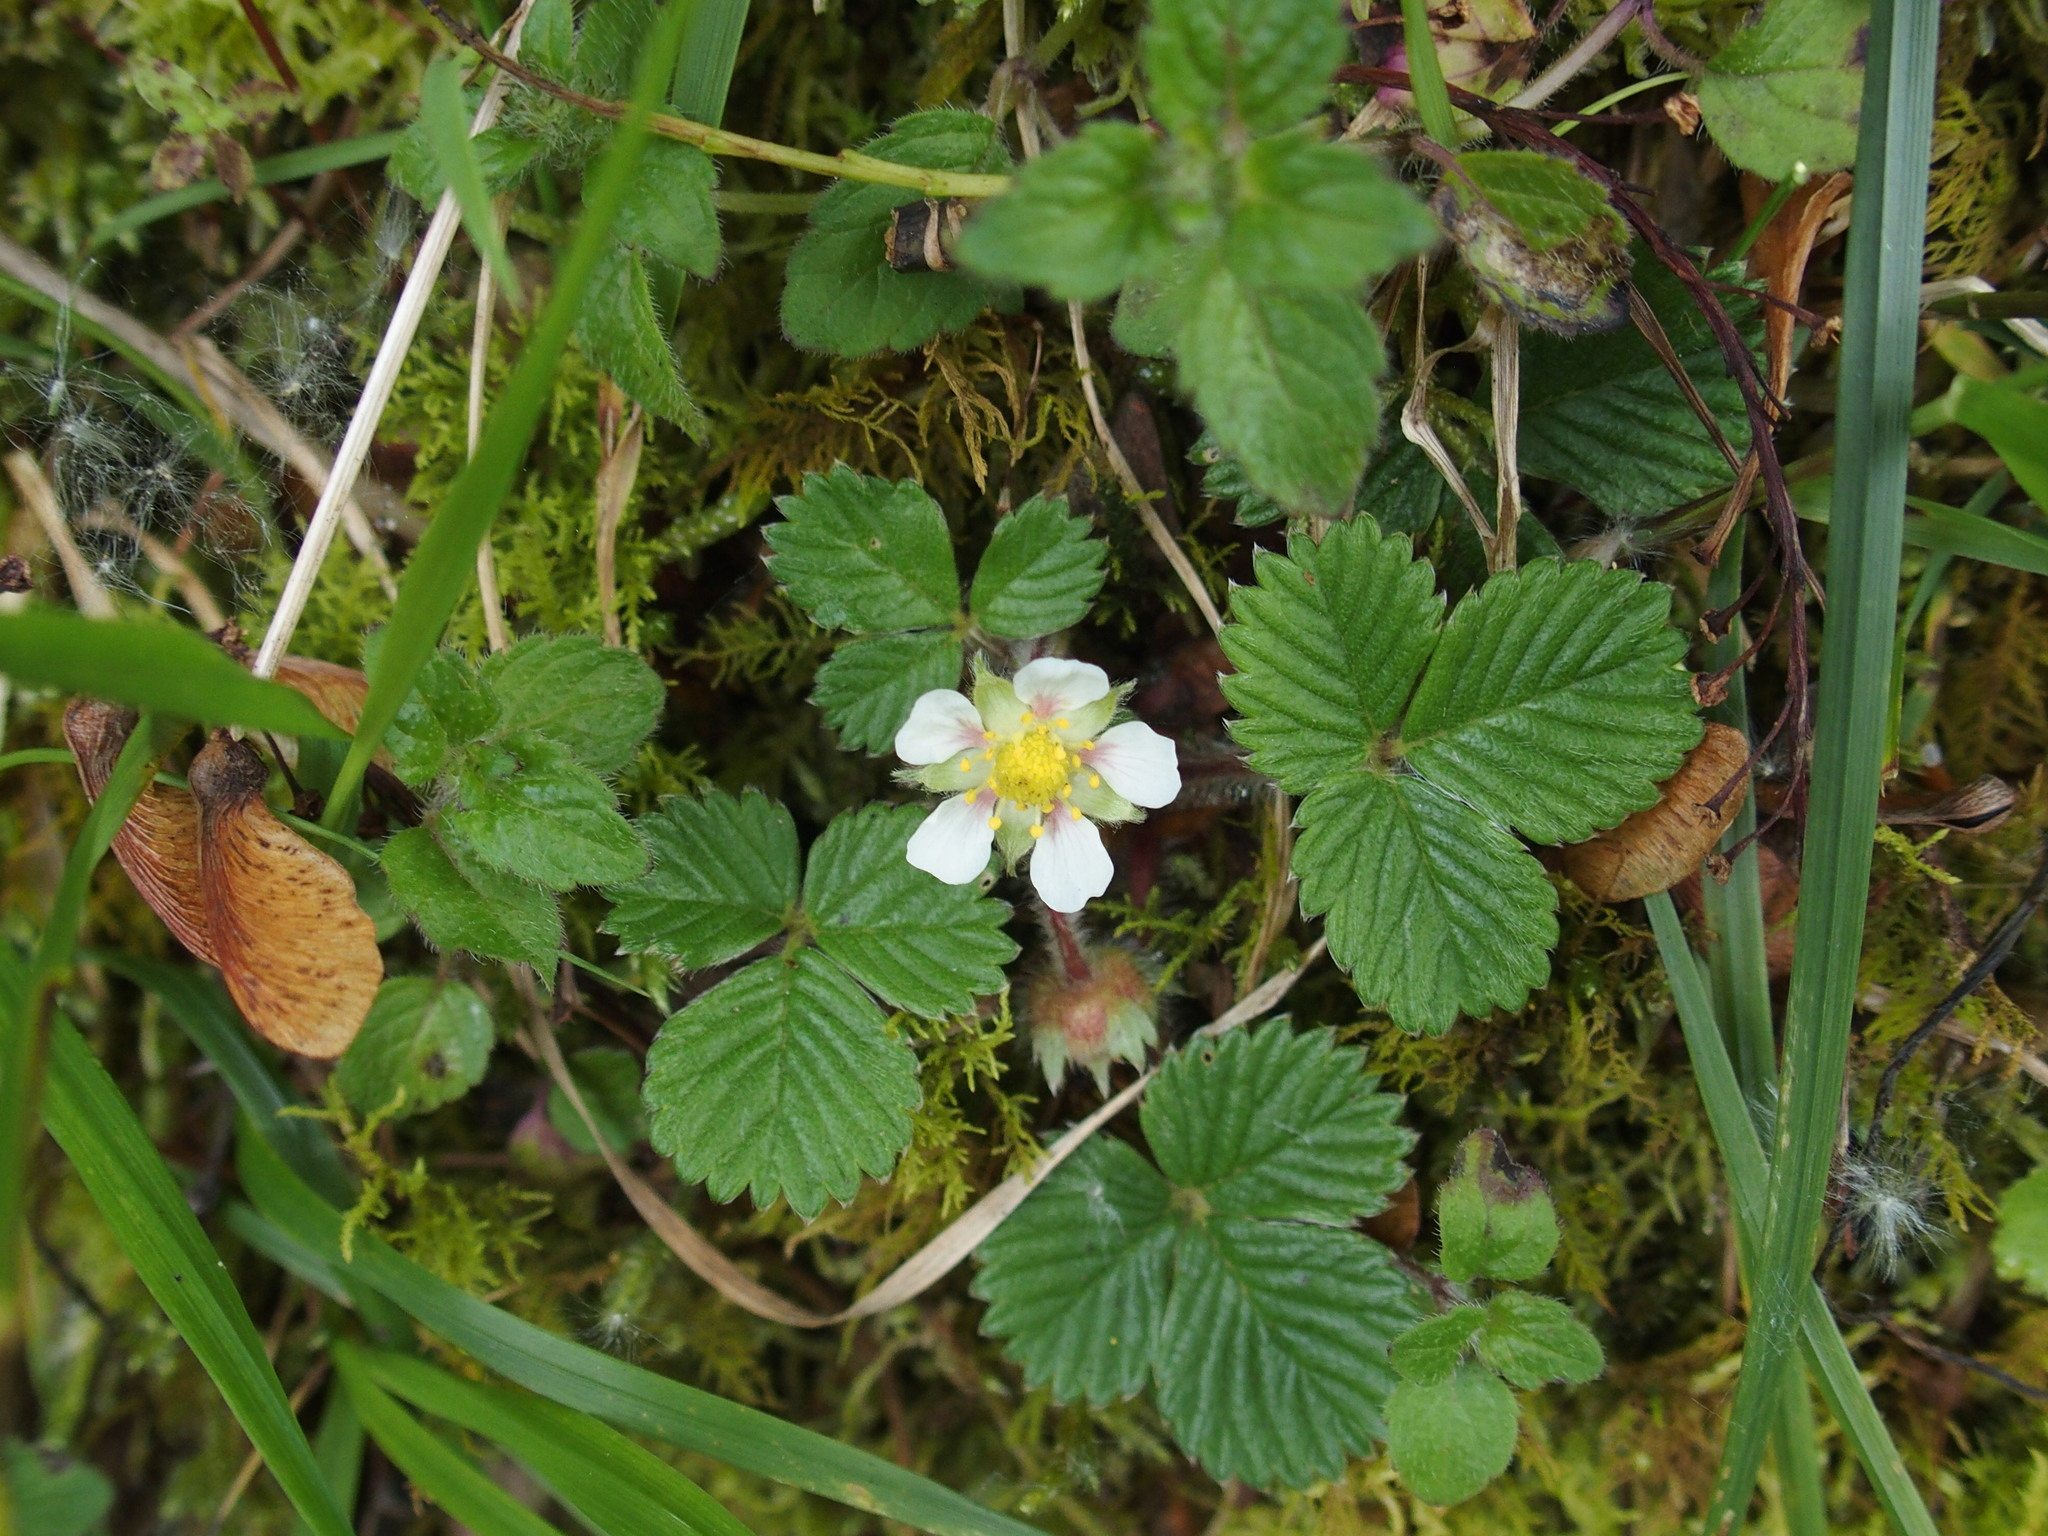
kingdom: Plantae
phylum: Tracheophyta
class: Magnoliopsida
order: Rosales
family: Rosaceae
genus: Fragaria
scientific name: Fragaria nilgerrensis
